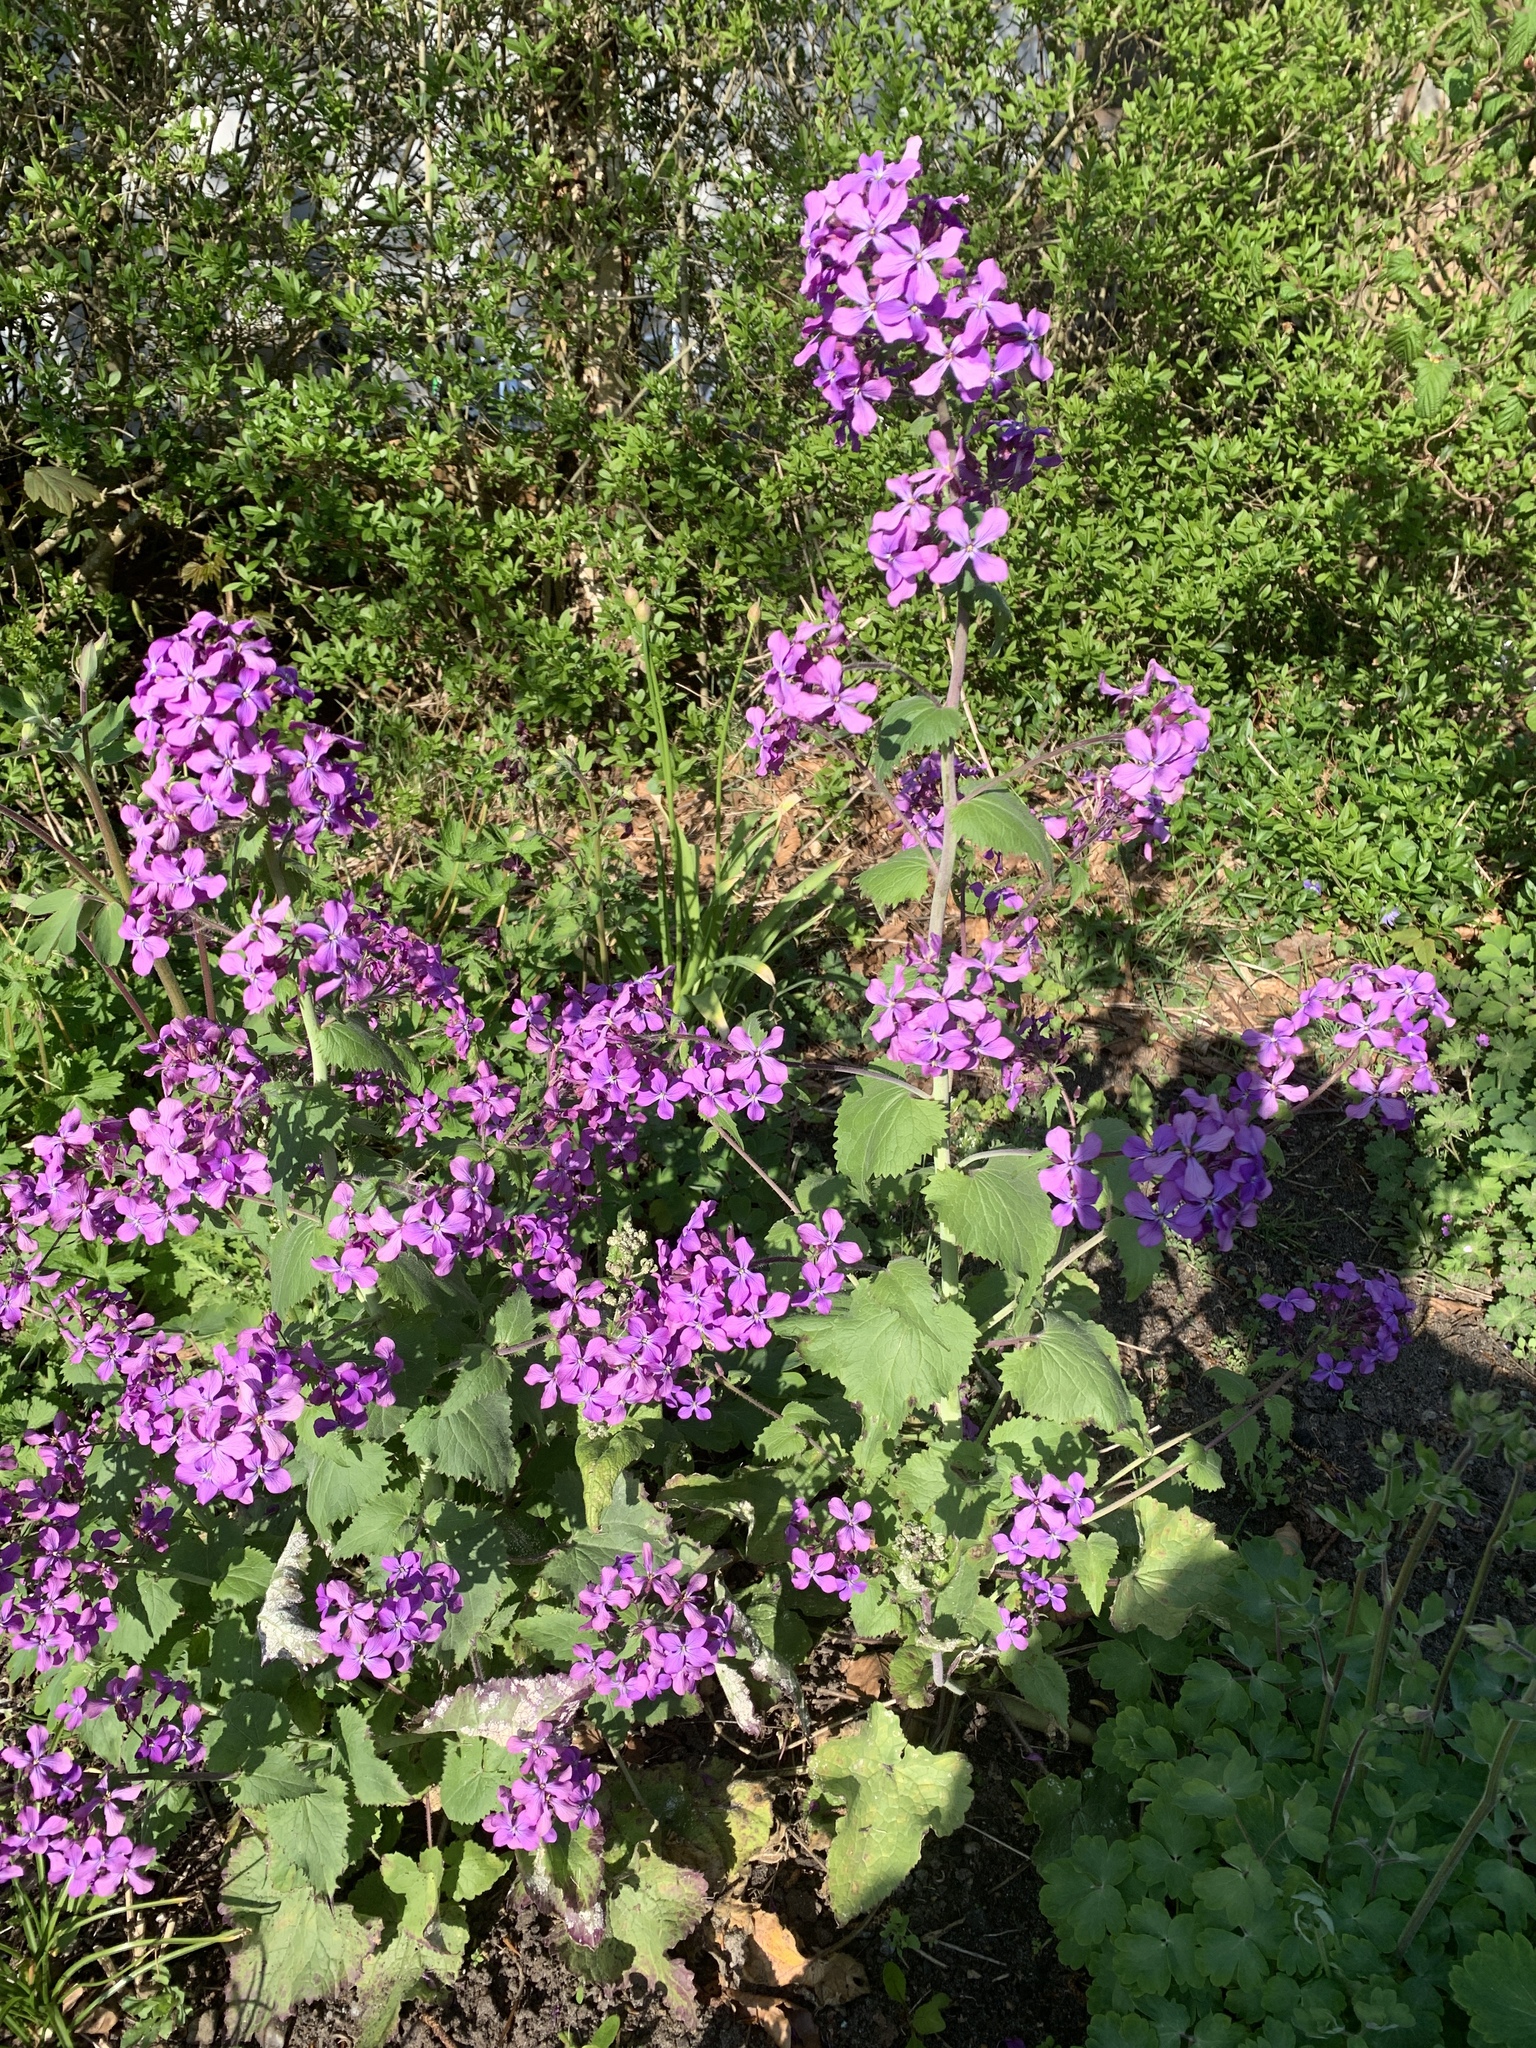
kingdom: Plantae
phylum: Tracheophyta
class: Magnoliopsida
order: Brassicales
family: Brassicaceae
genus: Lunaria
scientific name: Lunaria annua
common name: Honesty
